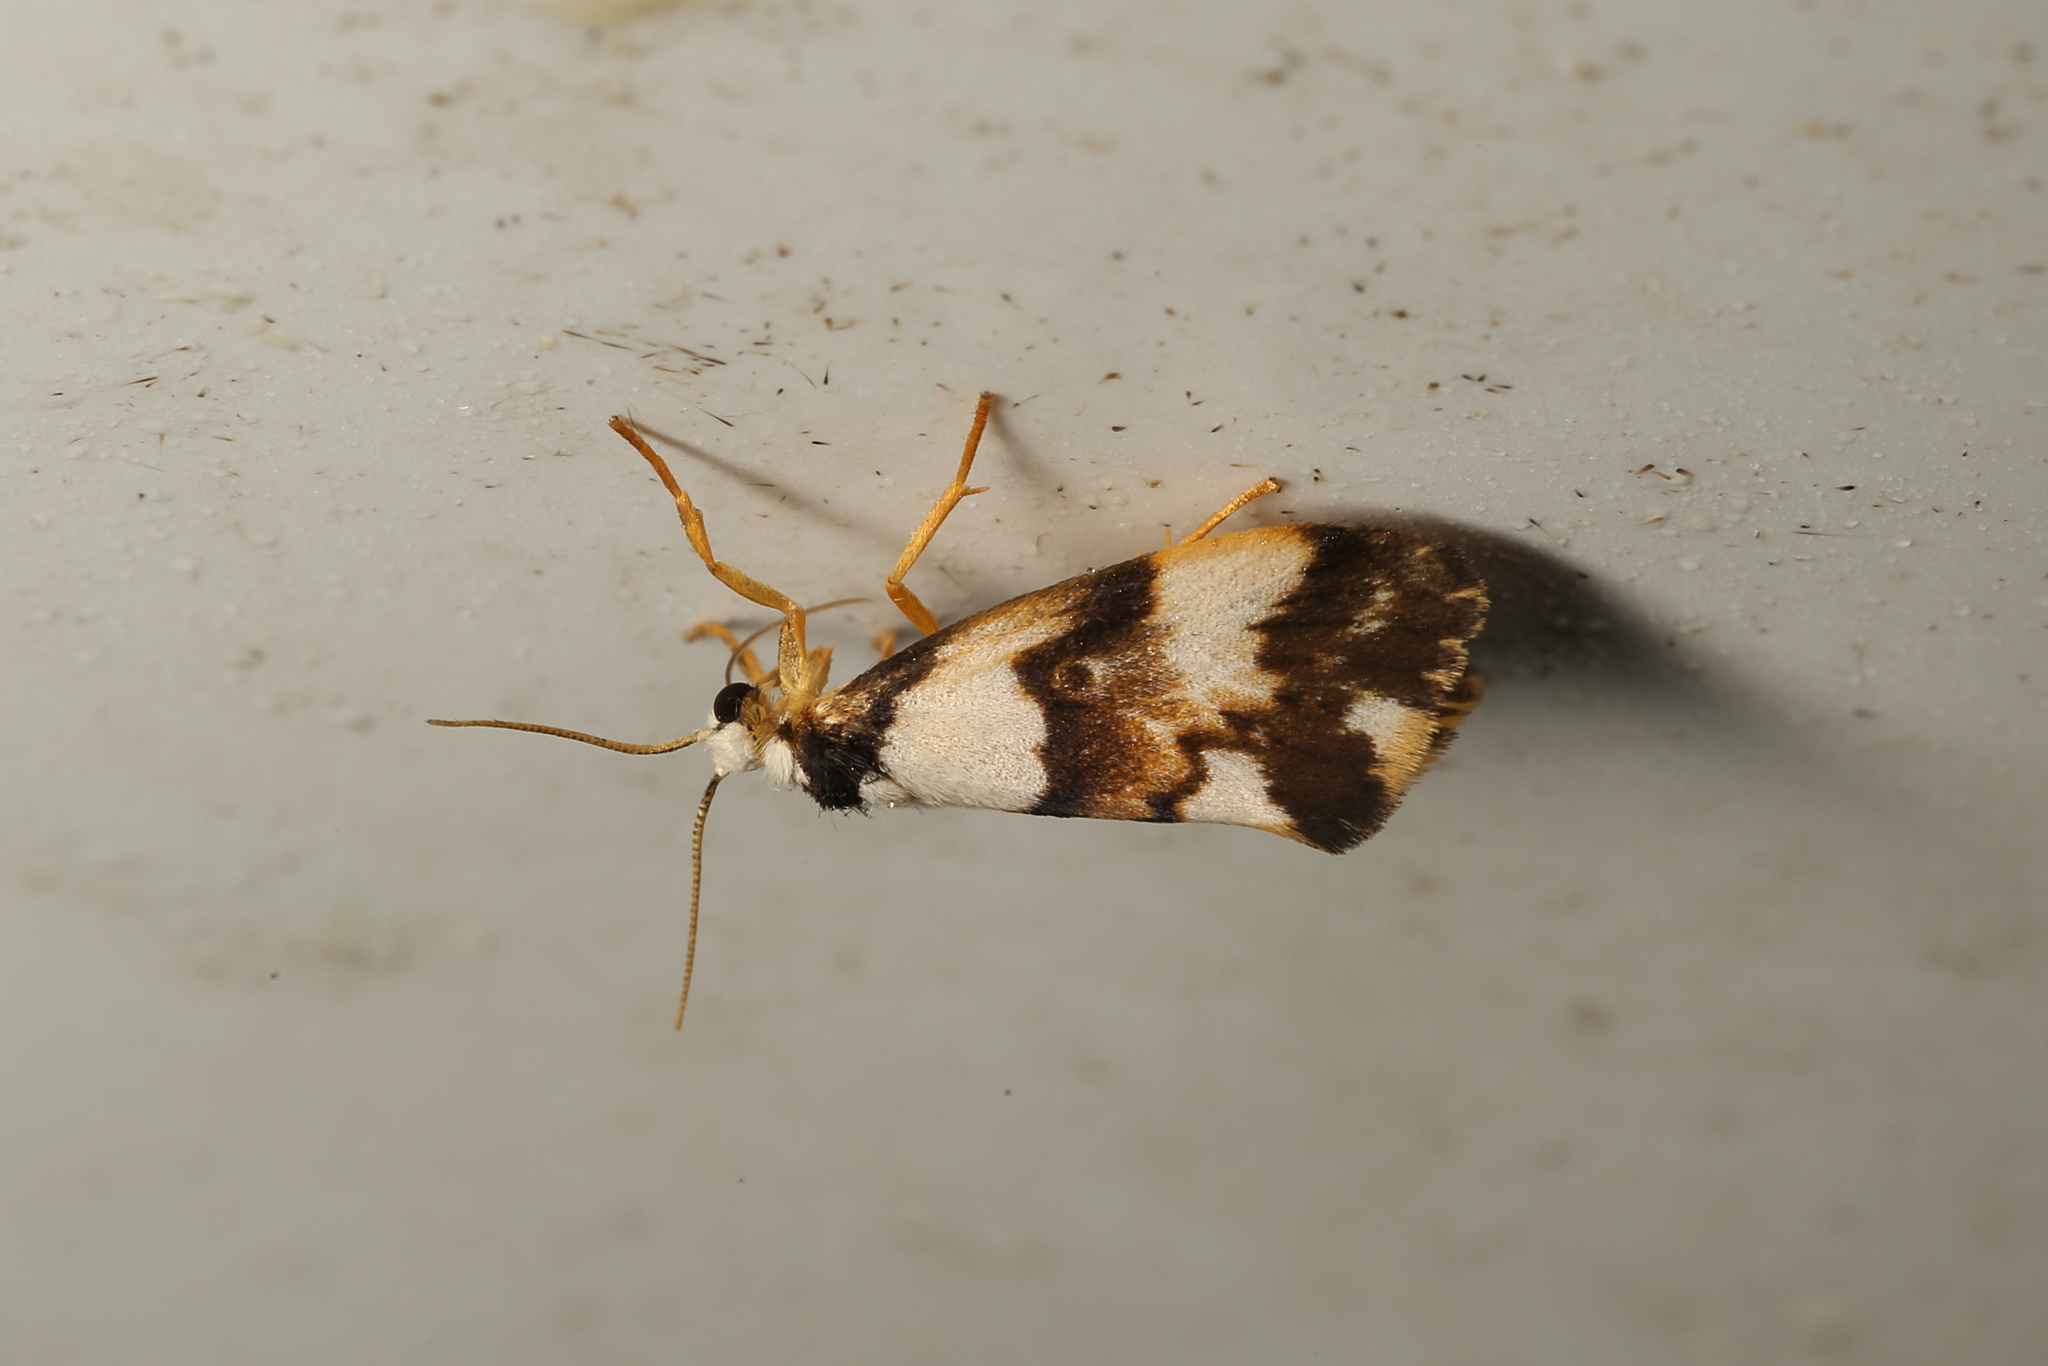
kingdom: Animalia
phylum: Arthropoda
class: Insecta
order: Lepidoptera
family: Erebidae
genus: Philenora
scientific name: Philenora aspectalella
